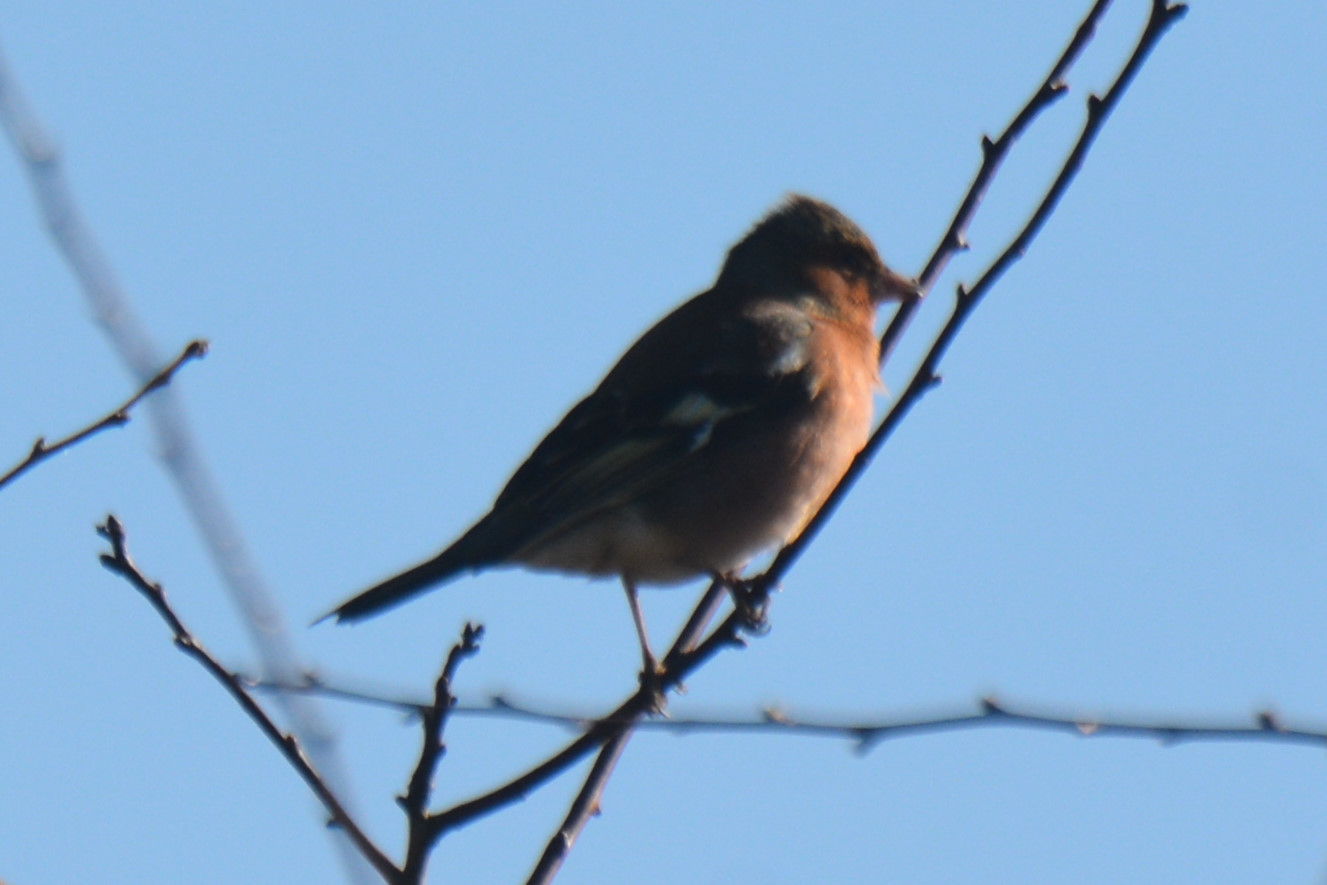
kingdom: Animalia
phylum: Chordata
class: Aves
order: Passeriformes
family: Fringillidae
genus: Fringilla
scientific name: Fringilla coelebs
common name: Common chaffinch
